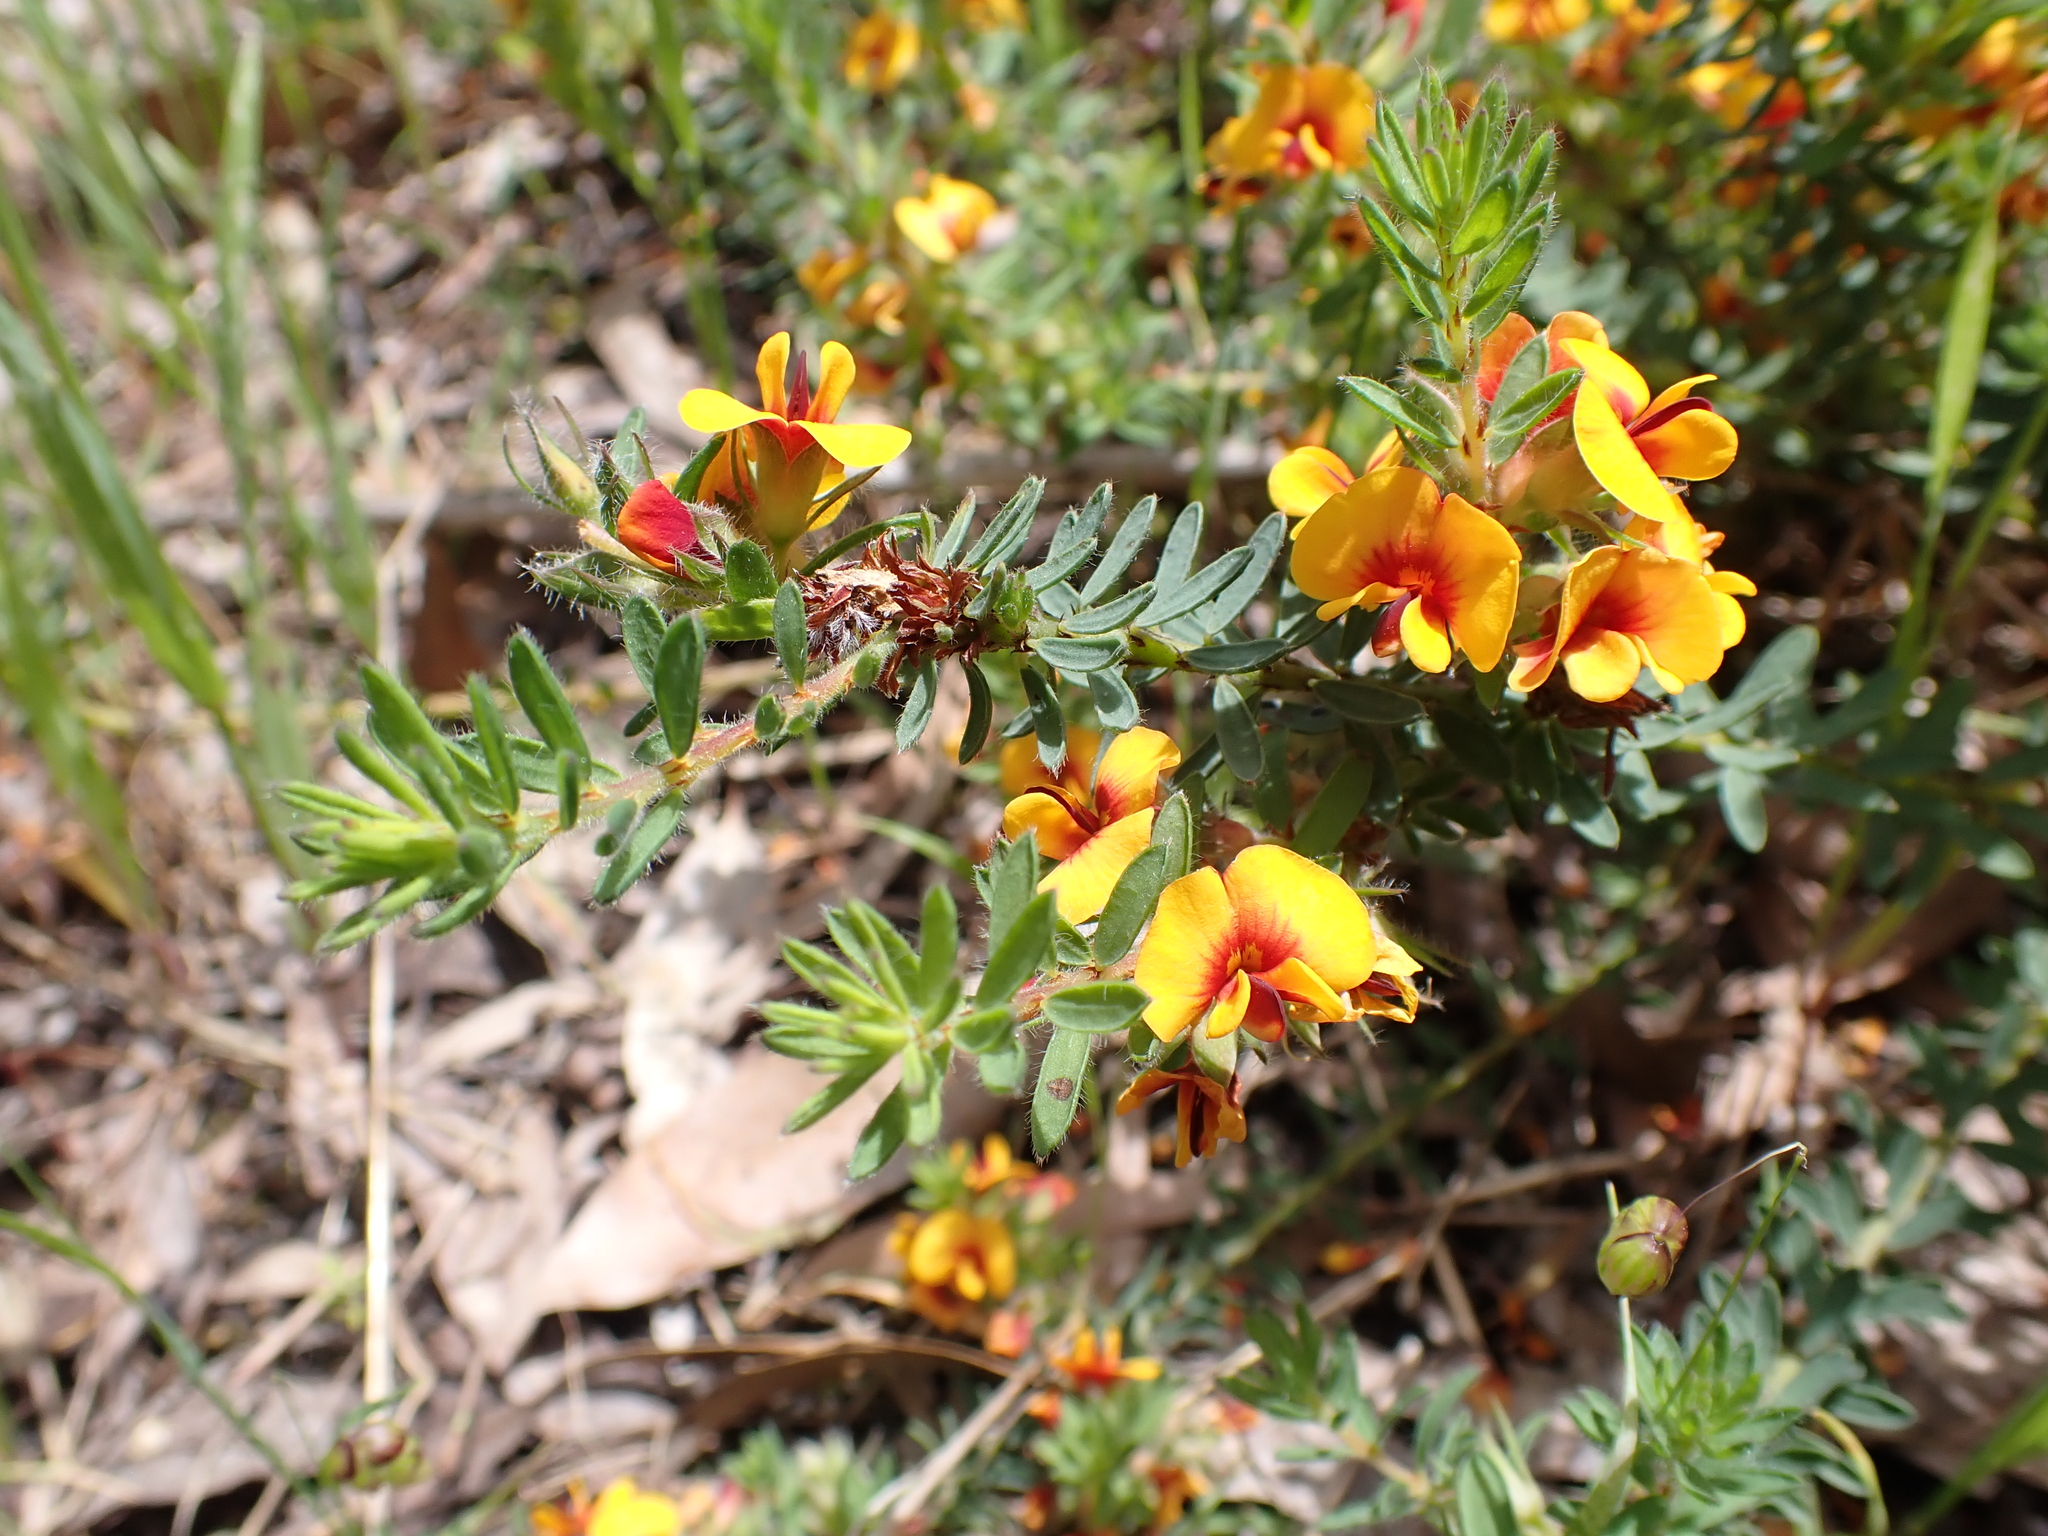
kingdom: Plantae
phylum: Tracheophyta
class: Magnoliopsida
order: Fabales
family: Fabaceae
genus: Pultenaea
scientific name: Pultenaea humilis
